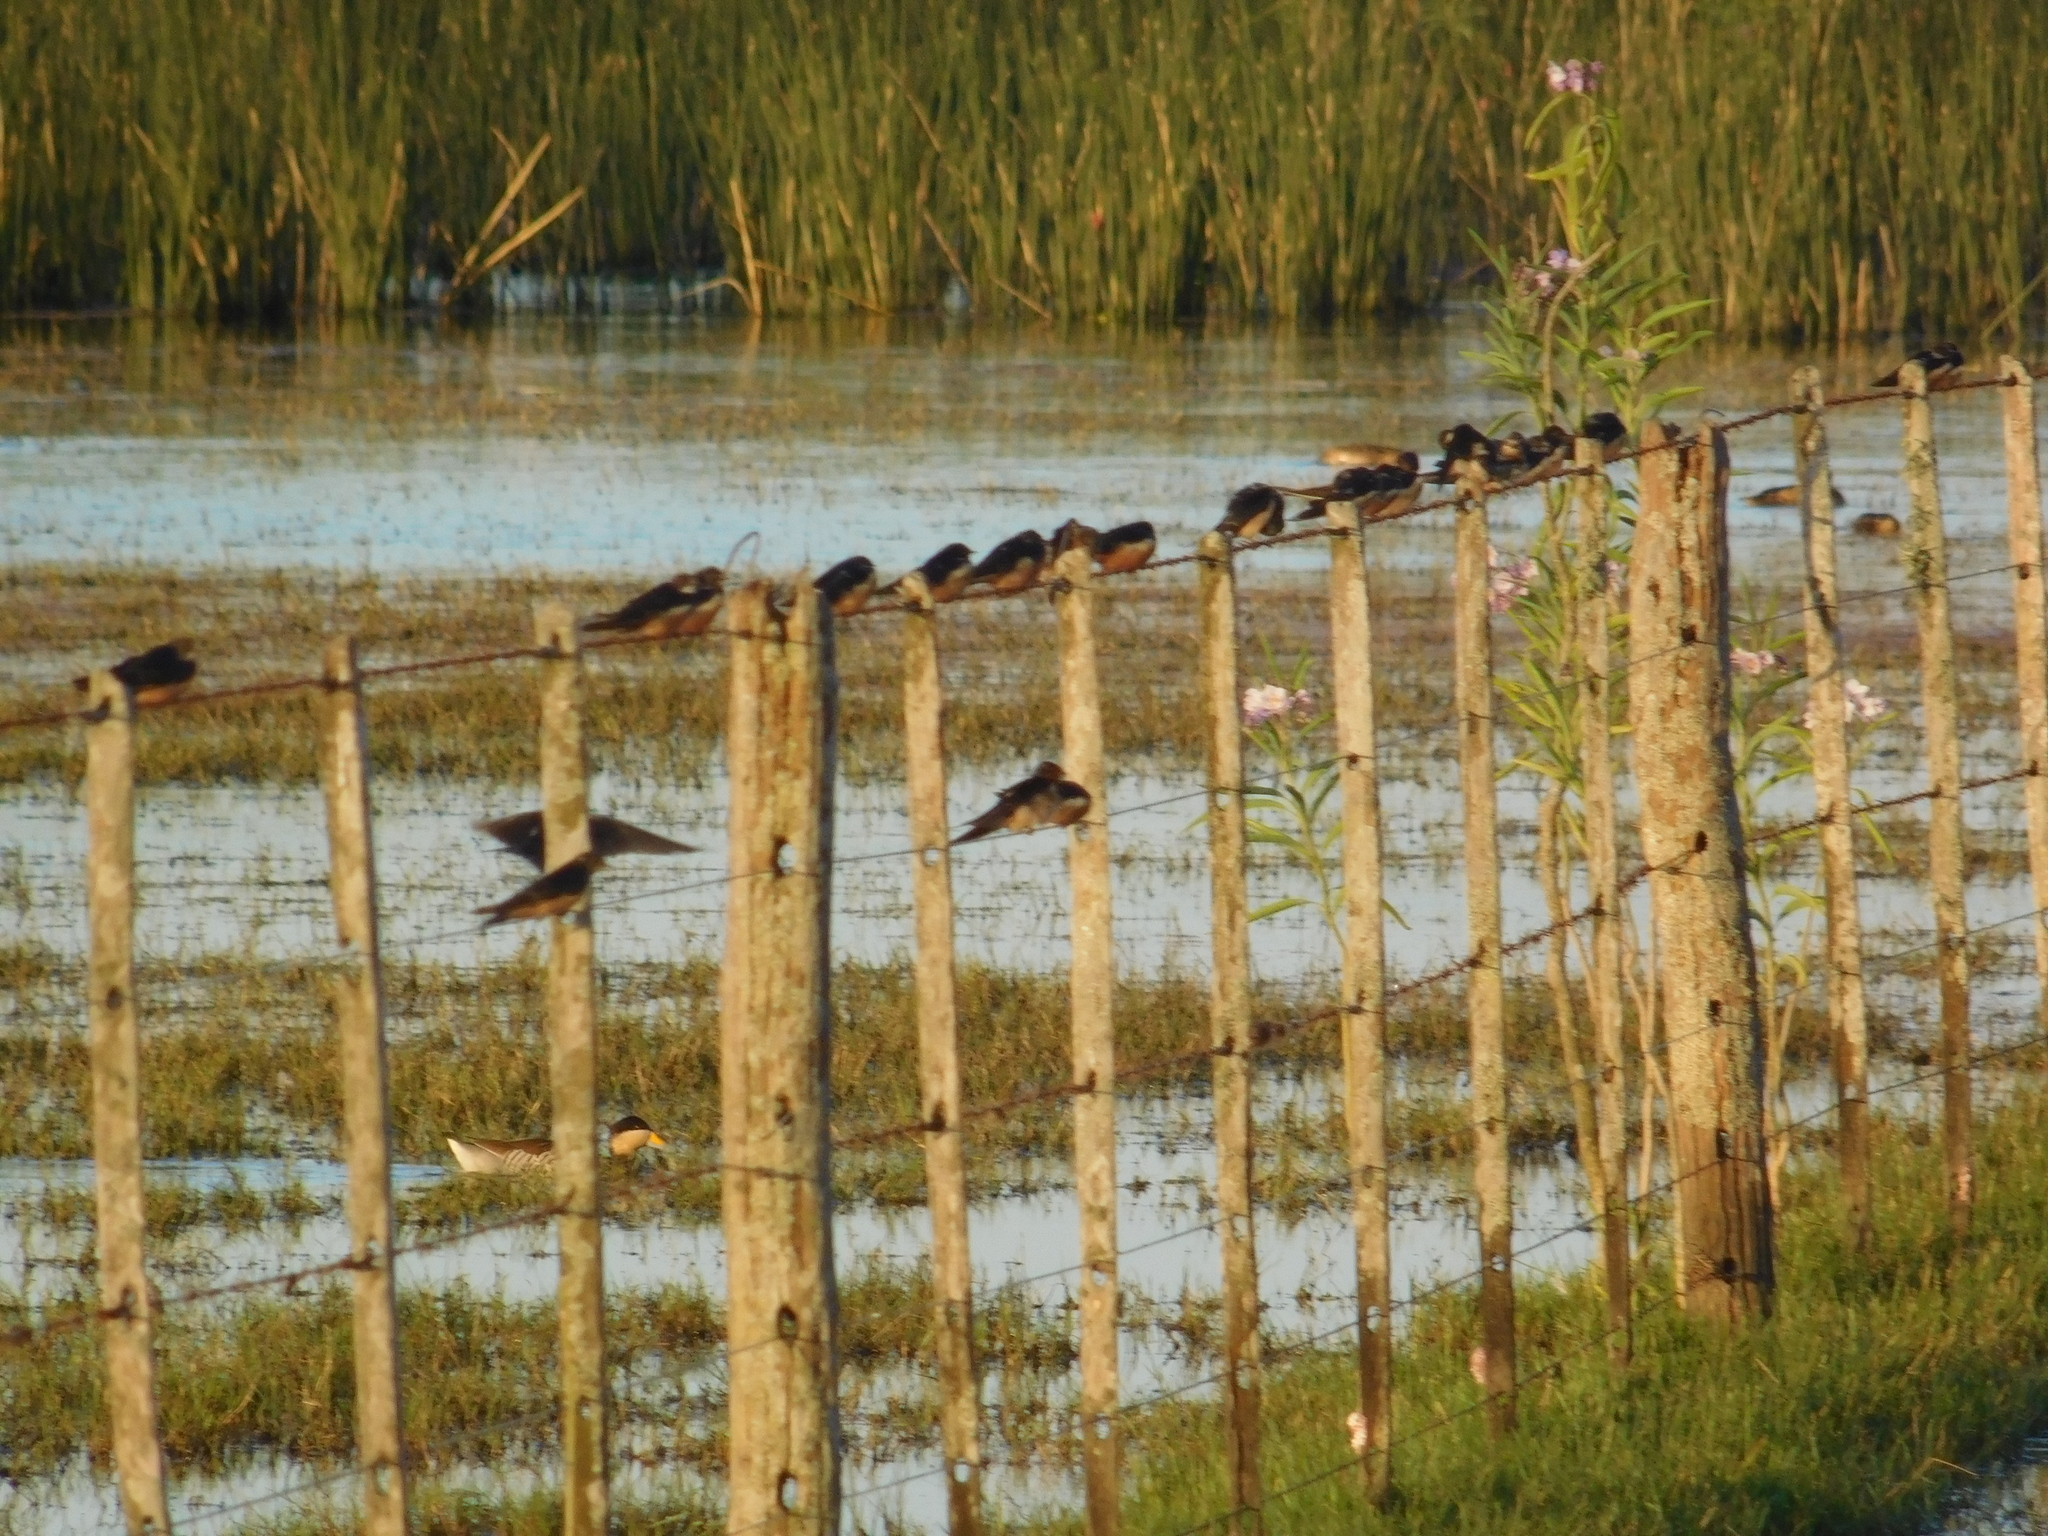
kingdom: Animalia
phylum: Chordata
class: Aves
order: Passeriformes
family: Hirundinidae
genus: Hirundo
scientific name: Hirundo rustica
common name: Barn swallow
